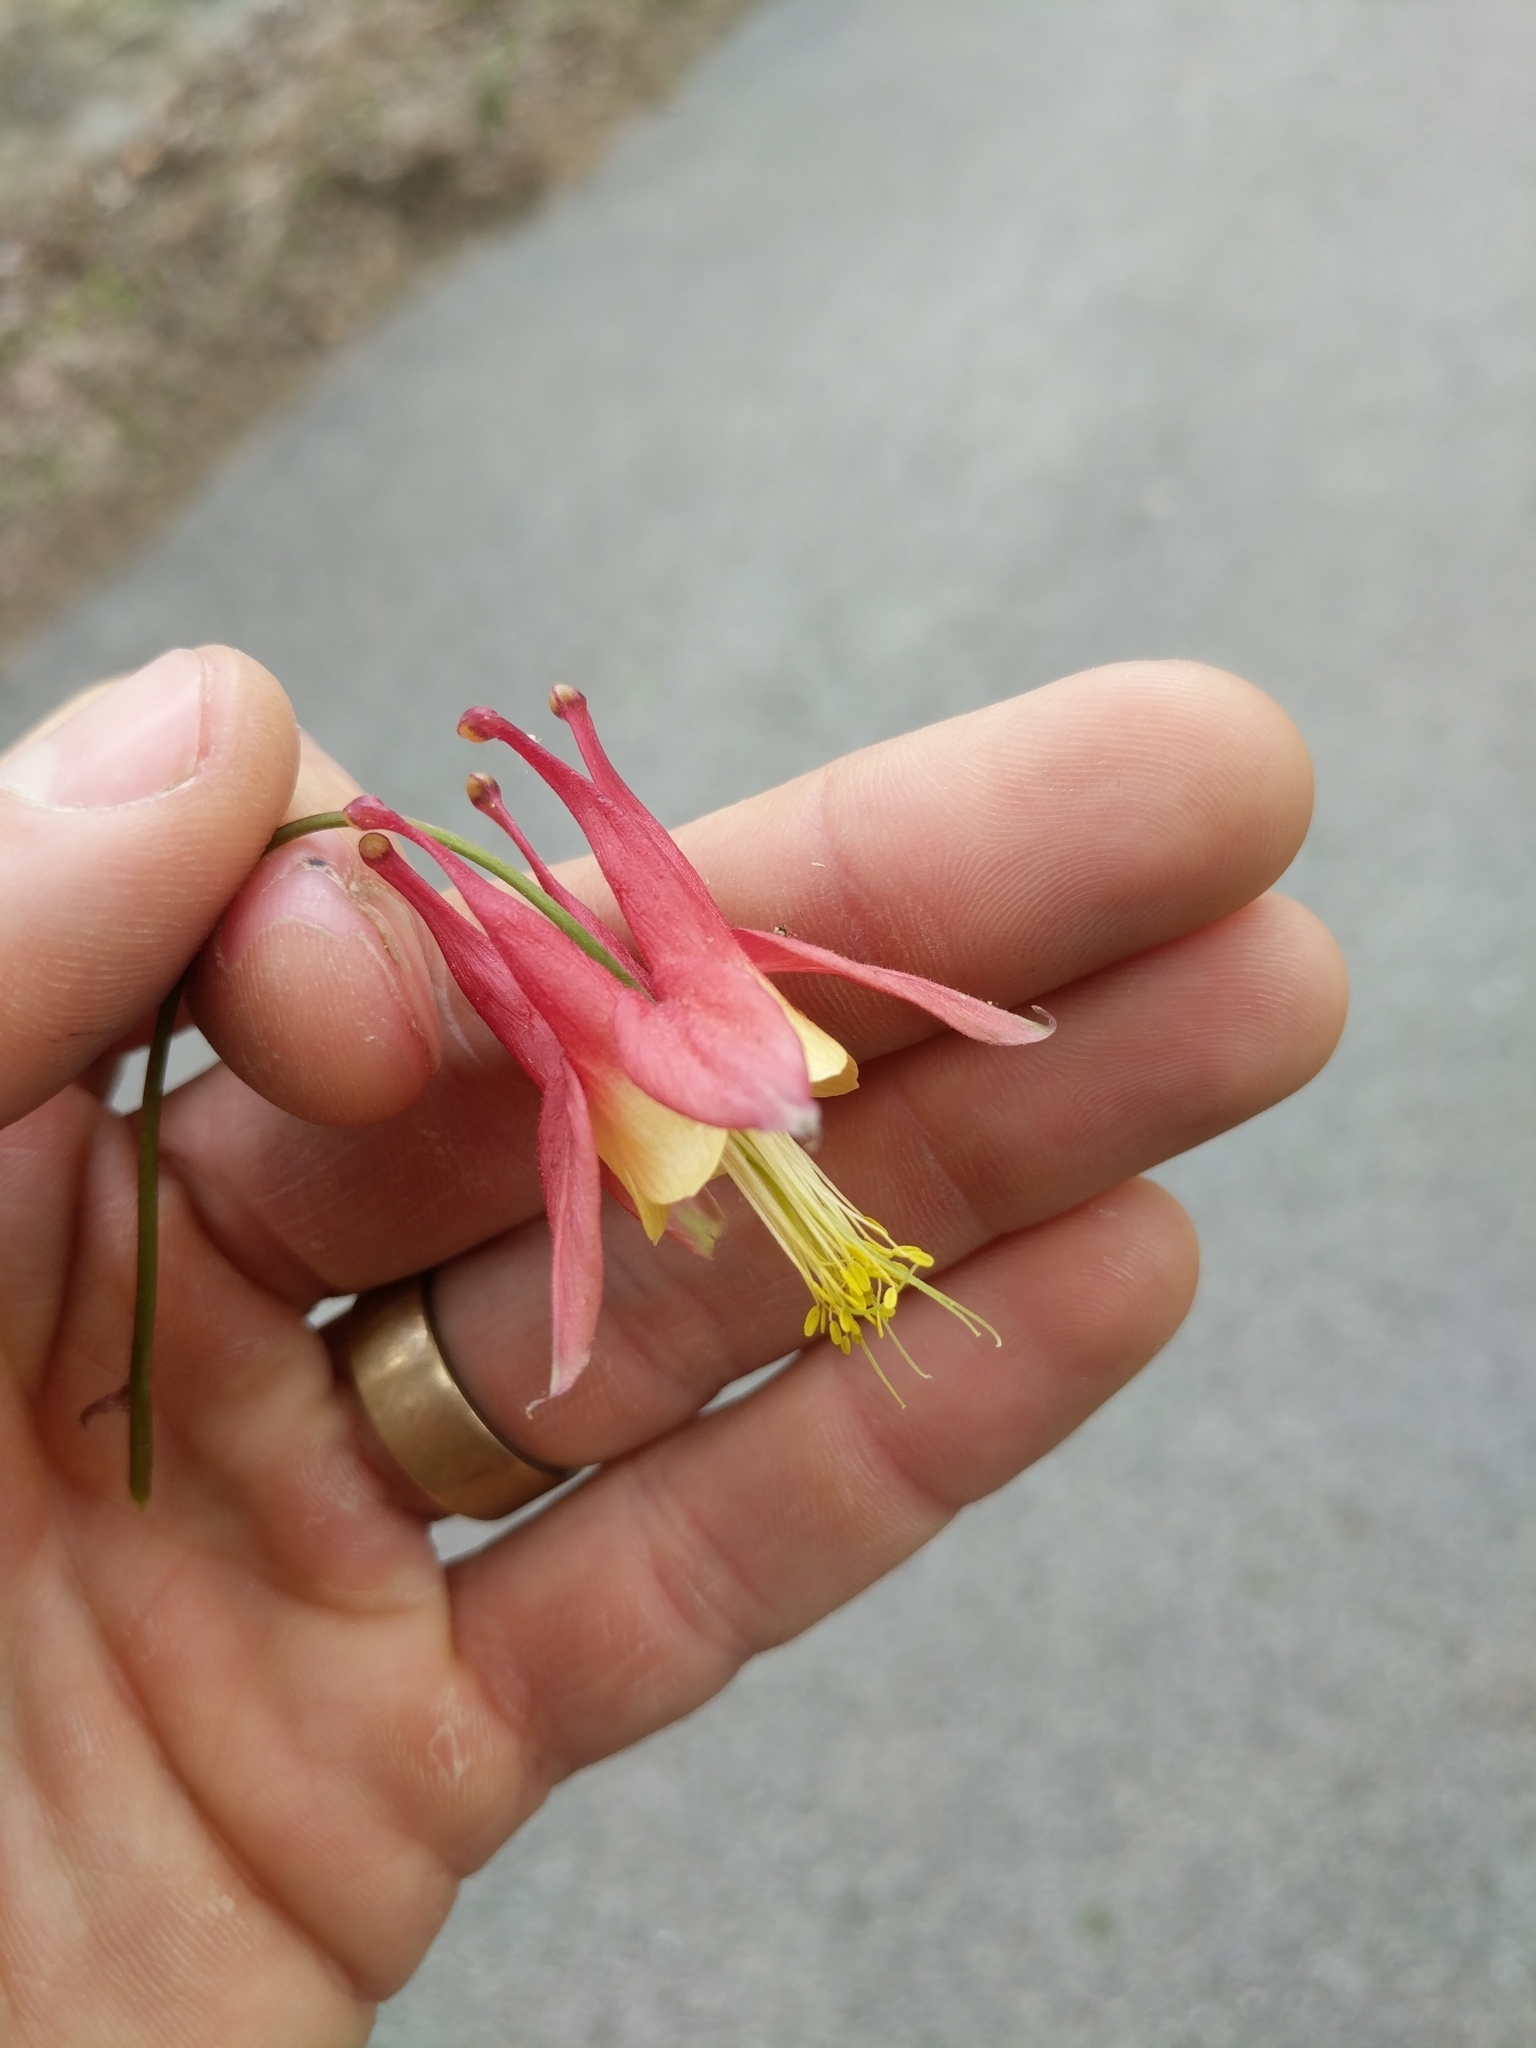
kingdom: Plantae
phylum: Tracheophyta
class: Magnoliopsida
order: Ranunculales
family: Ranunculaceae
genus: Aquilegia
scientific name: Aquilegia canadensis
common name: American columbine
